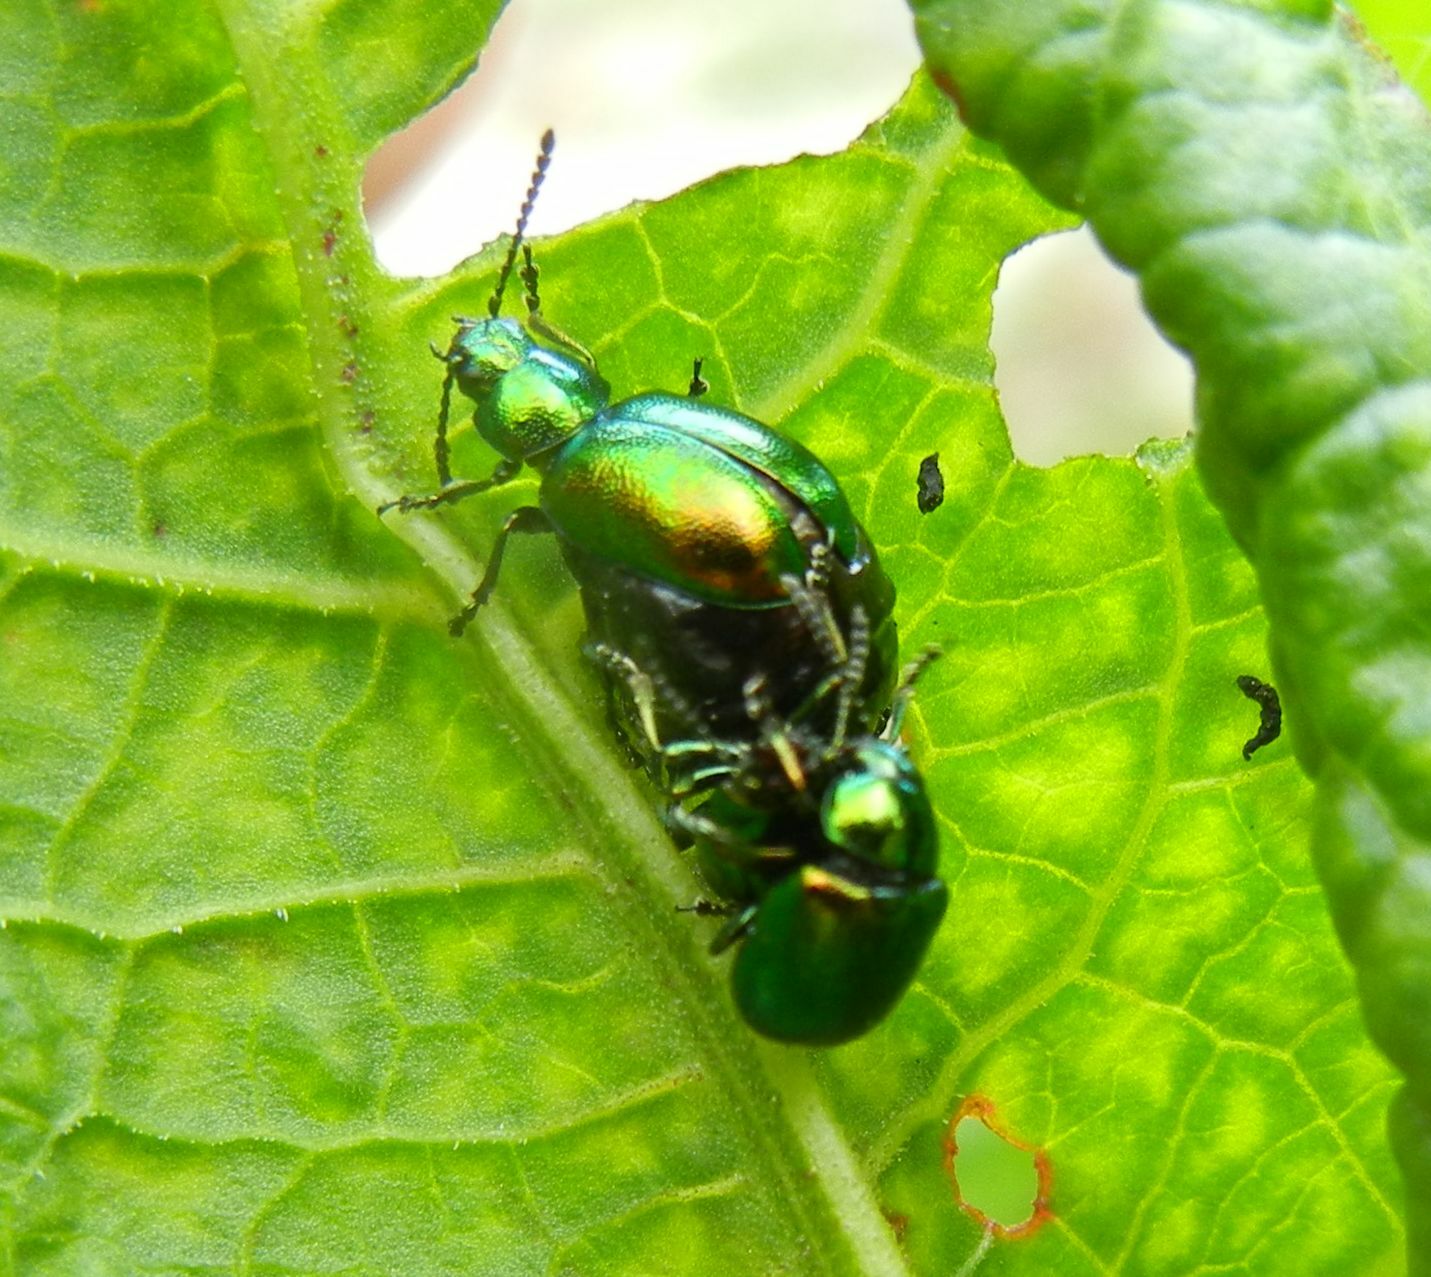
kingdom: Animalia
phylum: Arthropoda
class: Insecta
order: Coleoptera
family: Chrysomelidae
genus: Gastrophysa
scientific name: Gastrophysa viridula
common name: Green dock beetle
